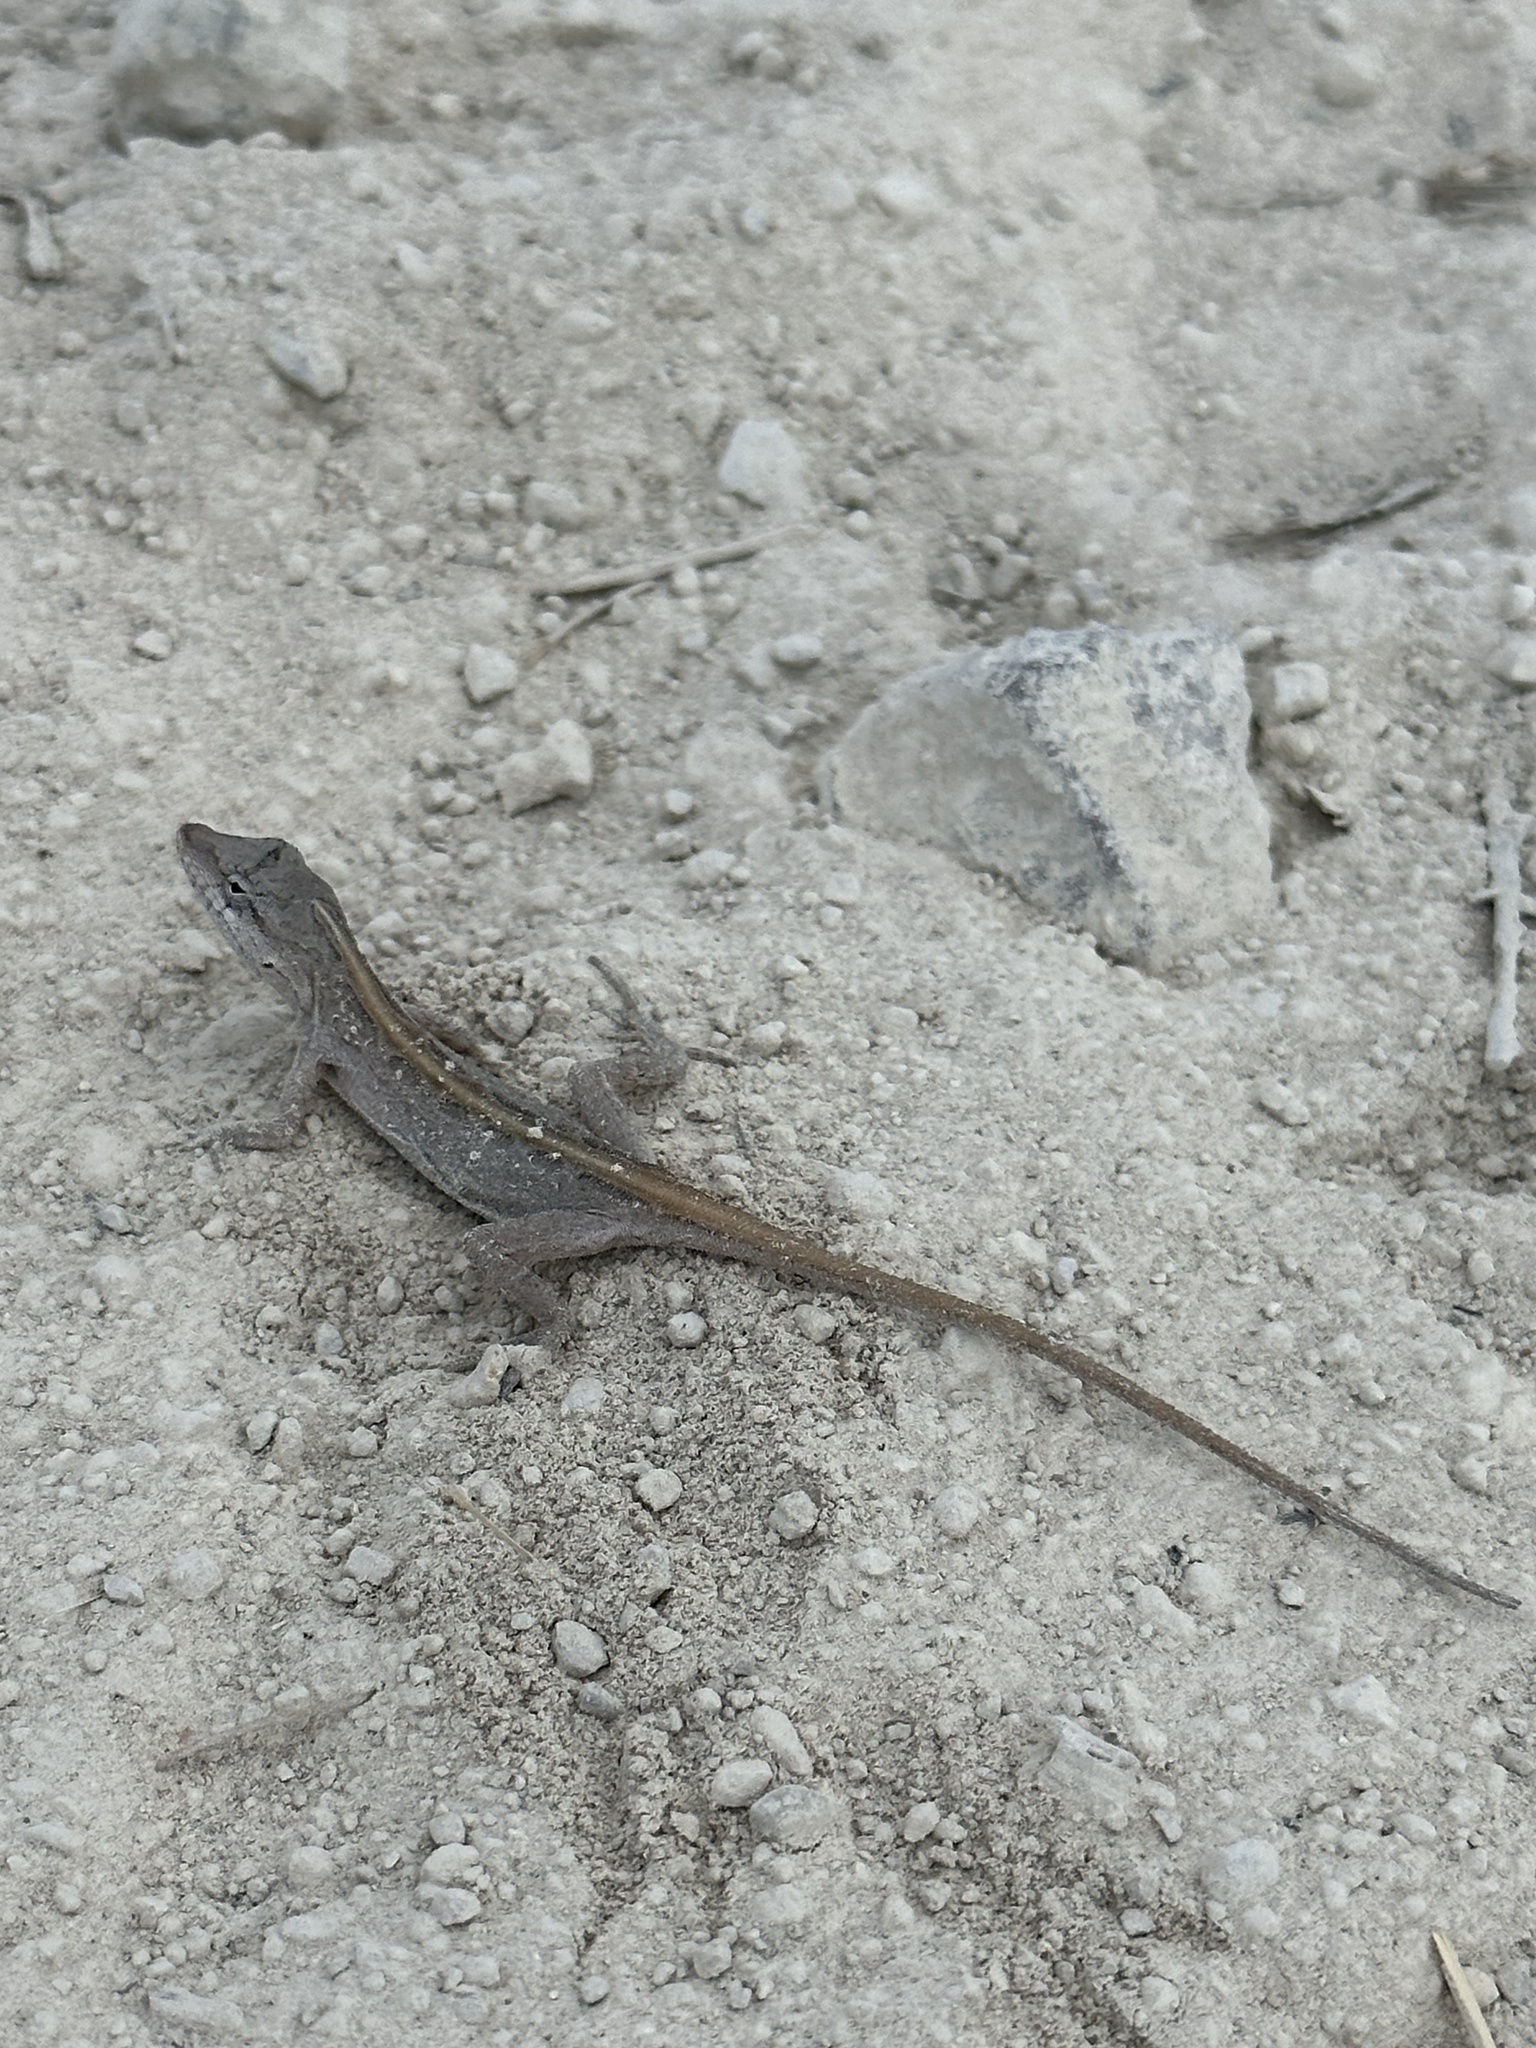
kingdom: Animalia
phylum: Chordata
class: Squamata
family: Dactyloidae
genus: Anolis
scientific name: Anolis nebulosus
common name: Clouded anole
